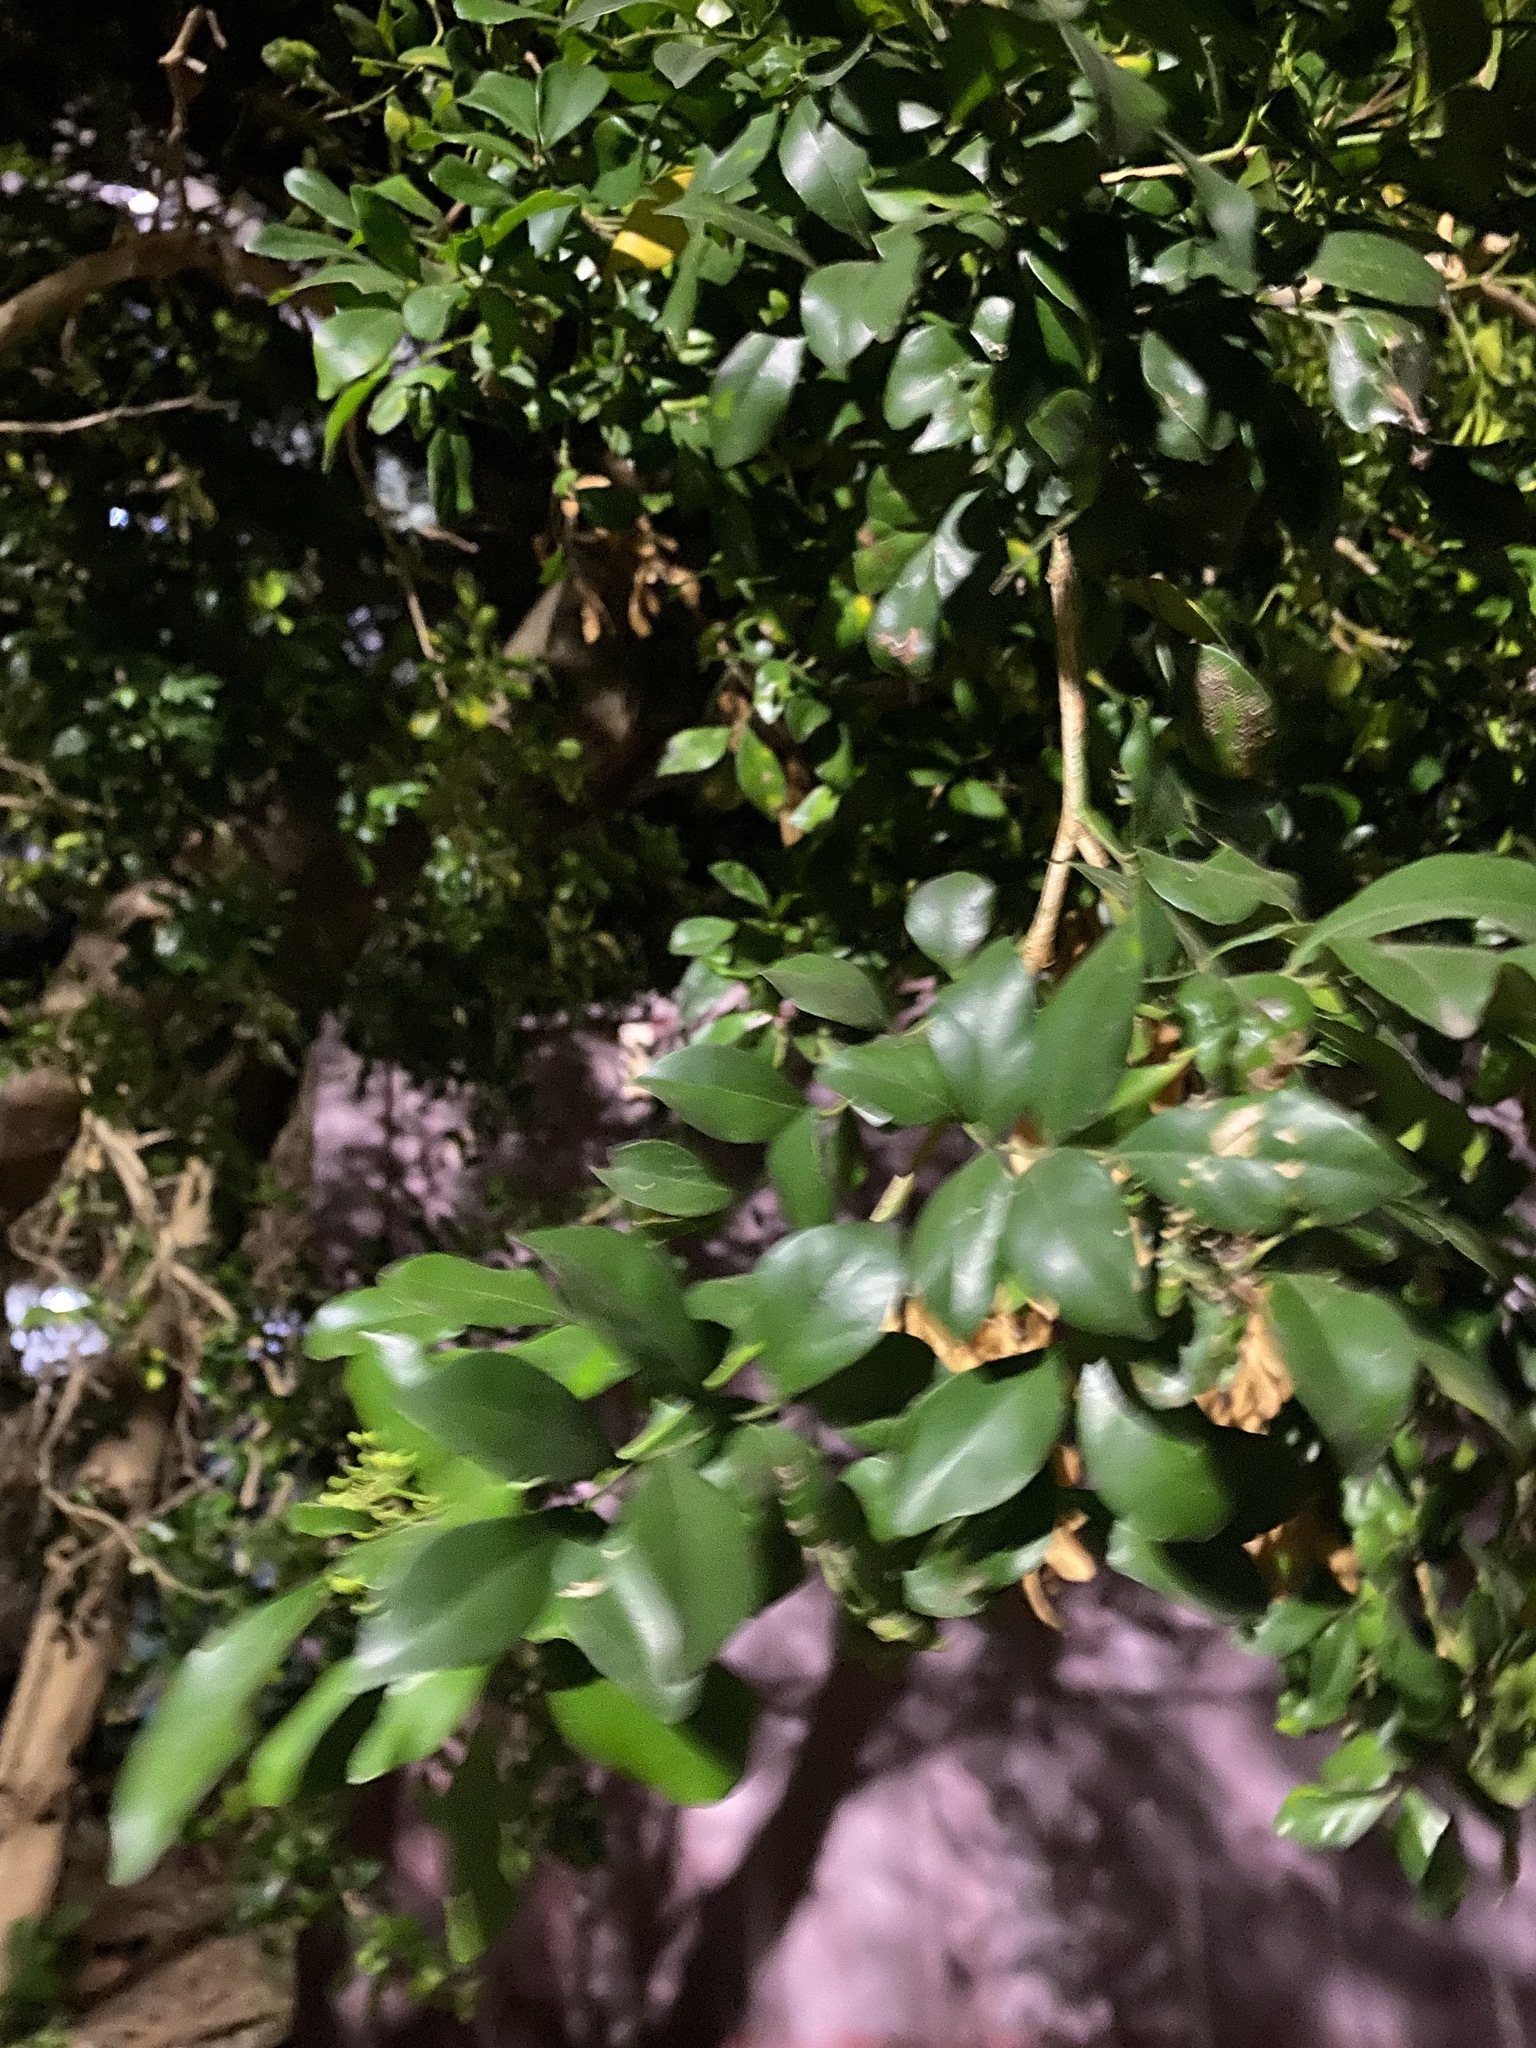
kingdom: Plantae
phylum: Tracheophyta
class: Magnoliopsida
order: Sapindales
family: Rutaceae
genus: Murraya
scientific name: Murraya paniculata
